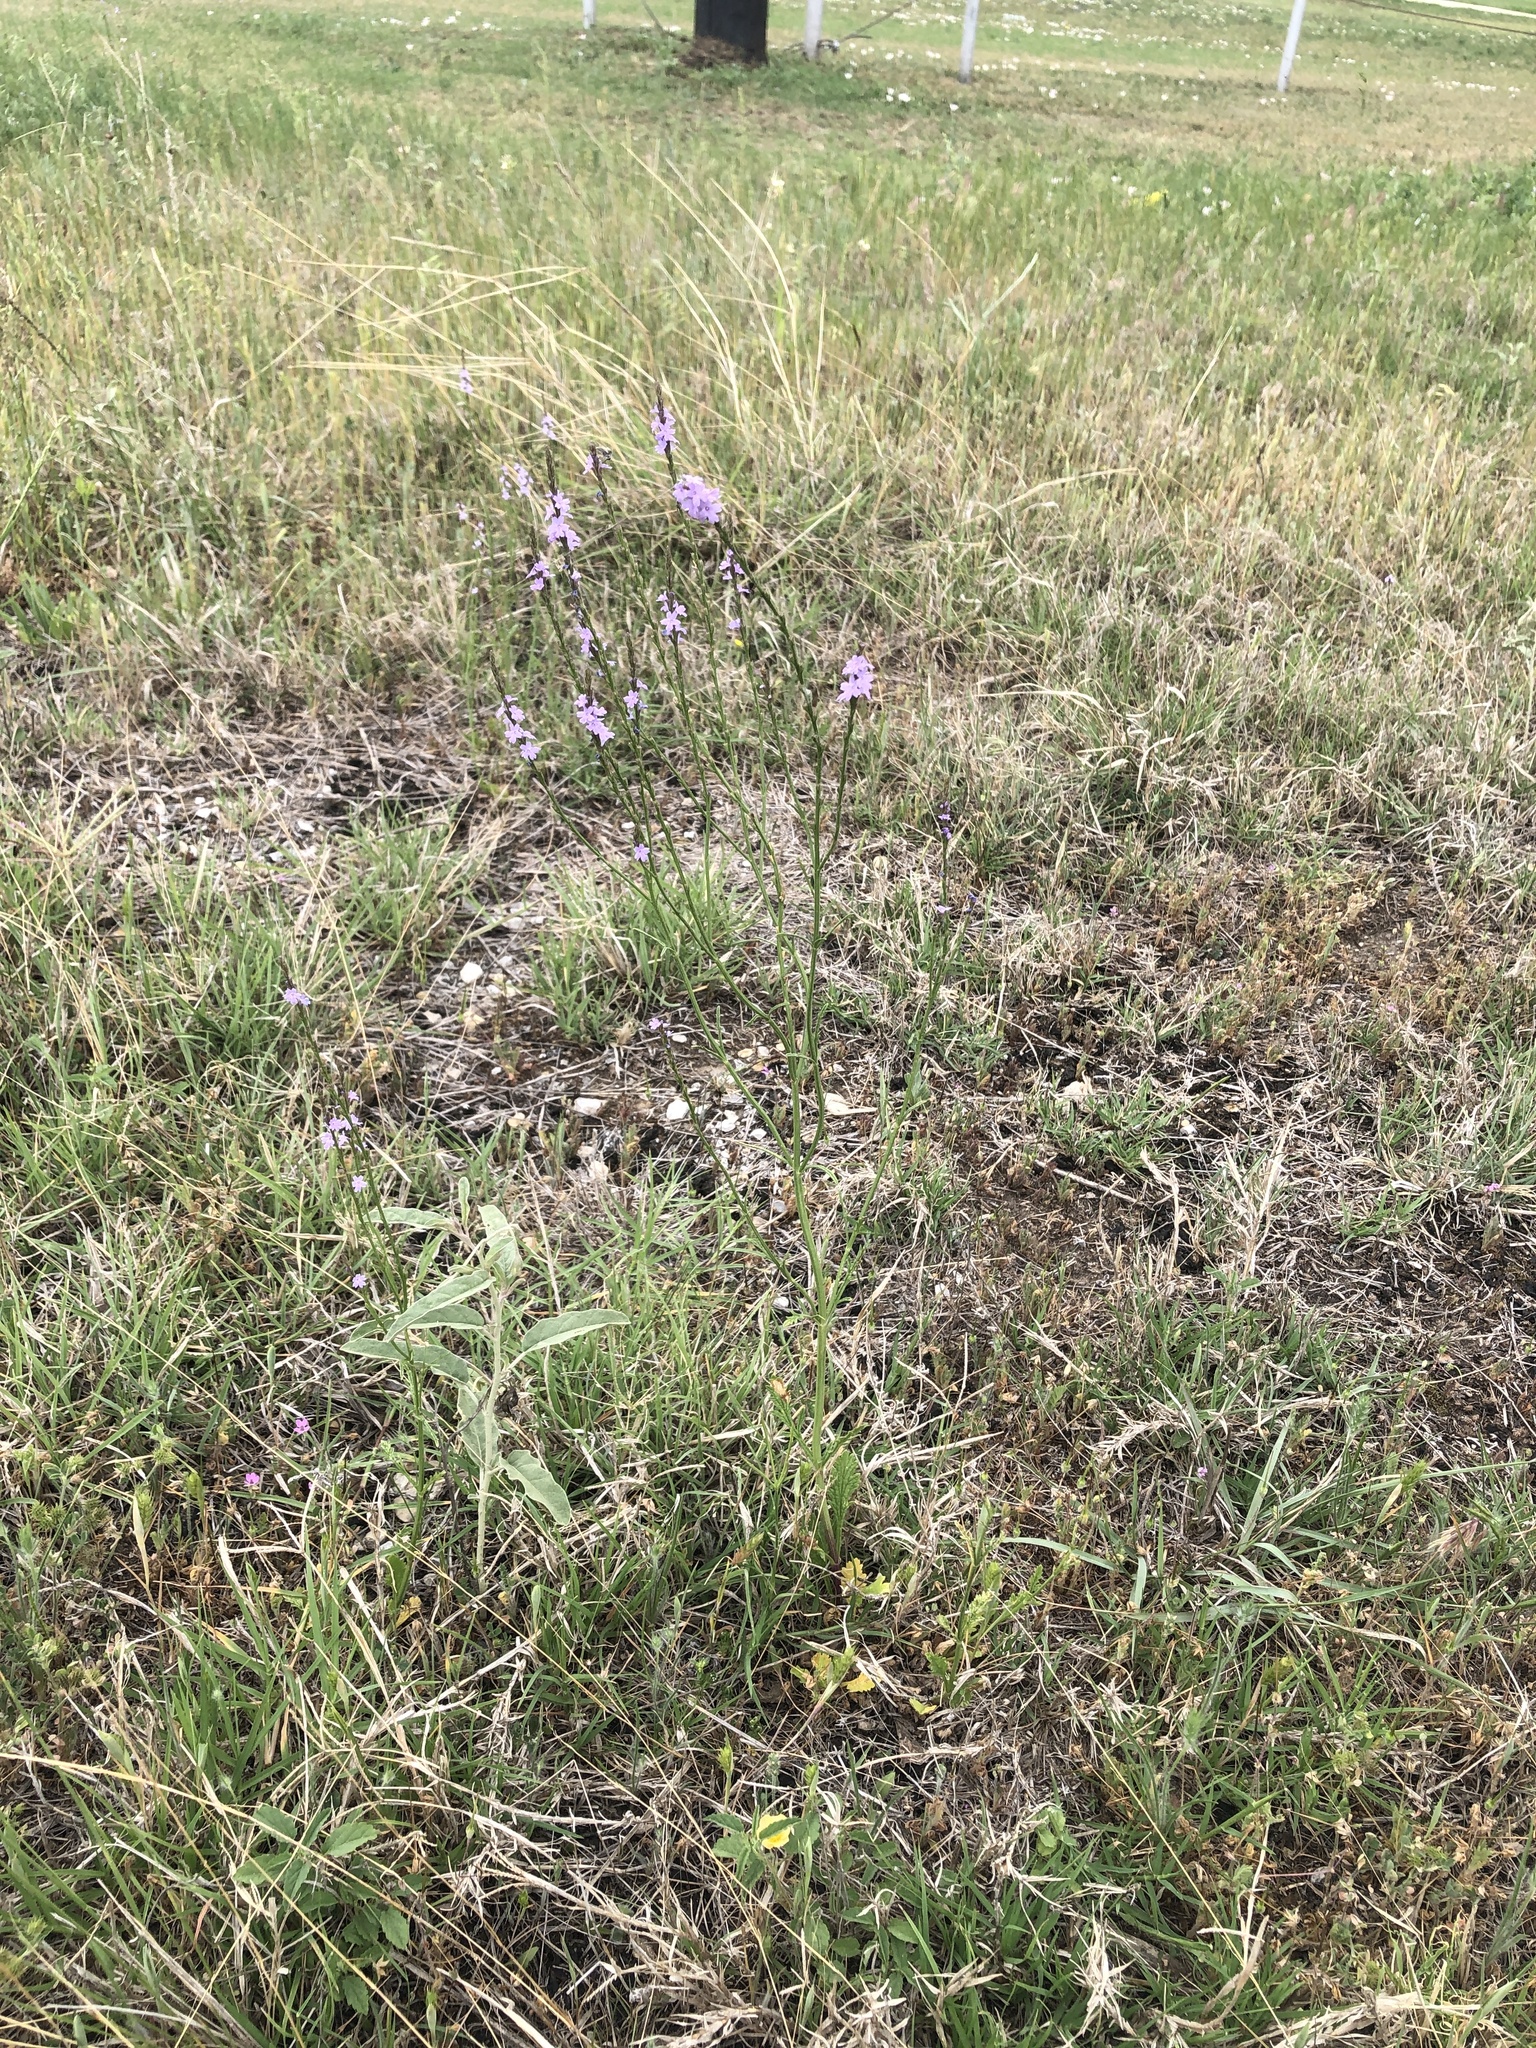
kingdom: Plantae
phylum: Tracheophyta
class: Magnoliopsida
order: Lamiales
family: Verbenaceae
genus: Verbena
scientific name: Verbena halei
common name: Texas vervain
